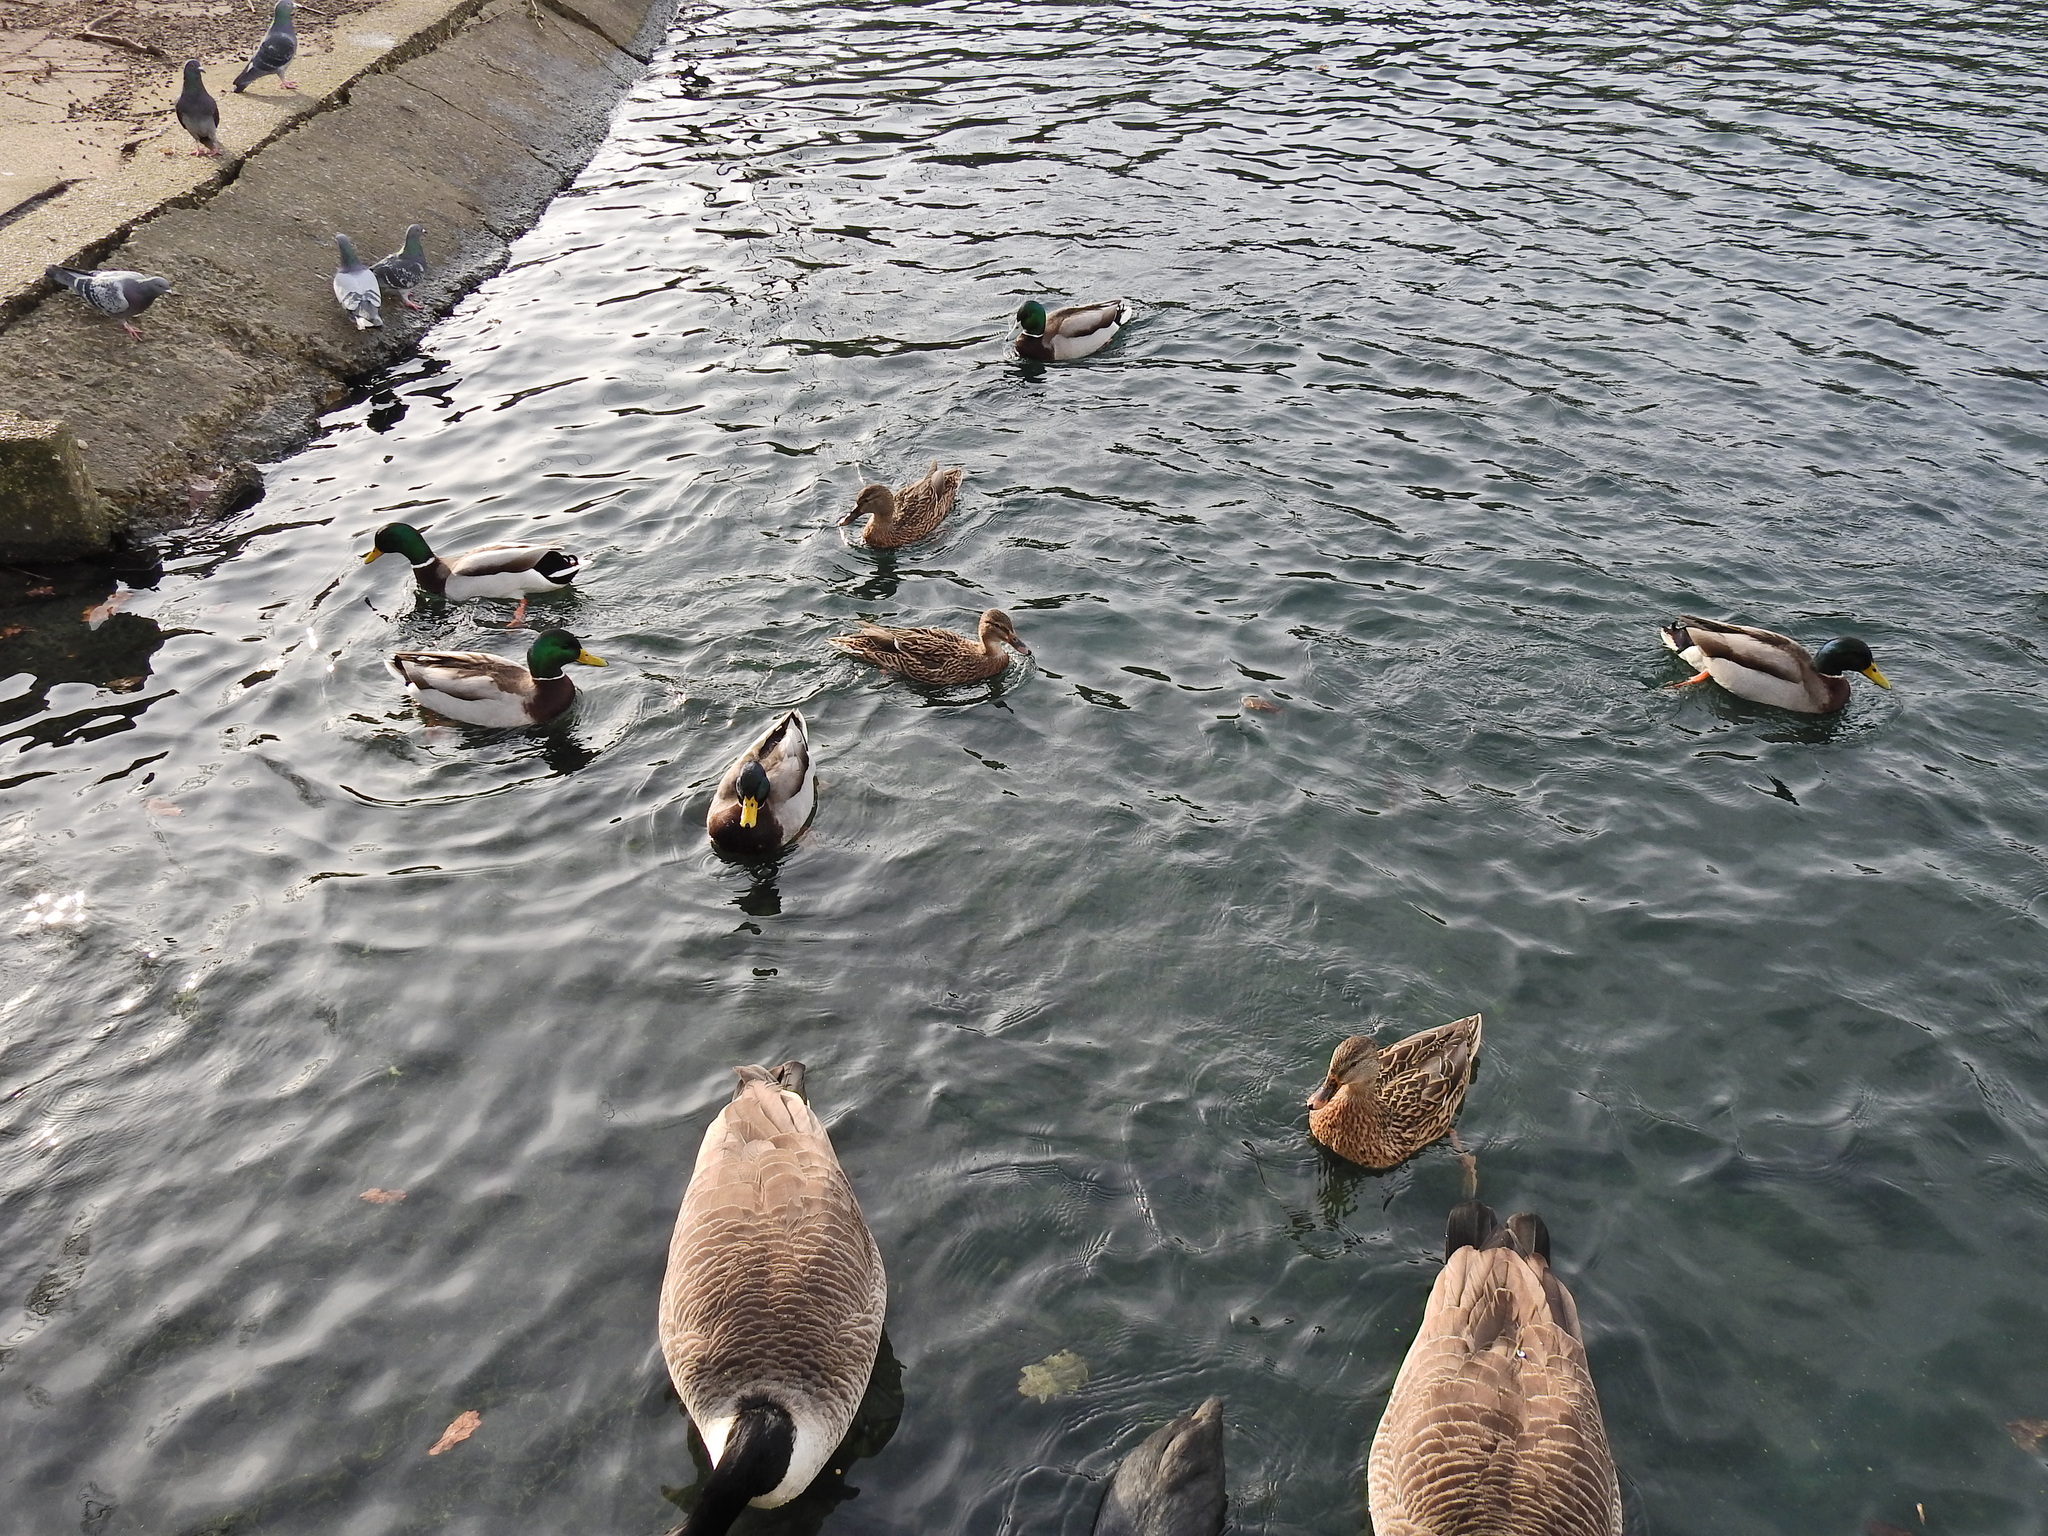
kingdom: Animalia
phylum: Chordata
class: Aves
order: Anseriformes
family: Anatidae
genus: Anas
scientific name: Anas platyrhynchos
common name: Mallard
